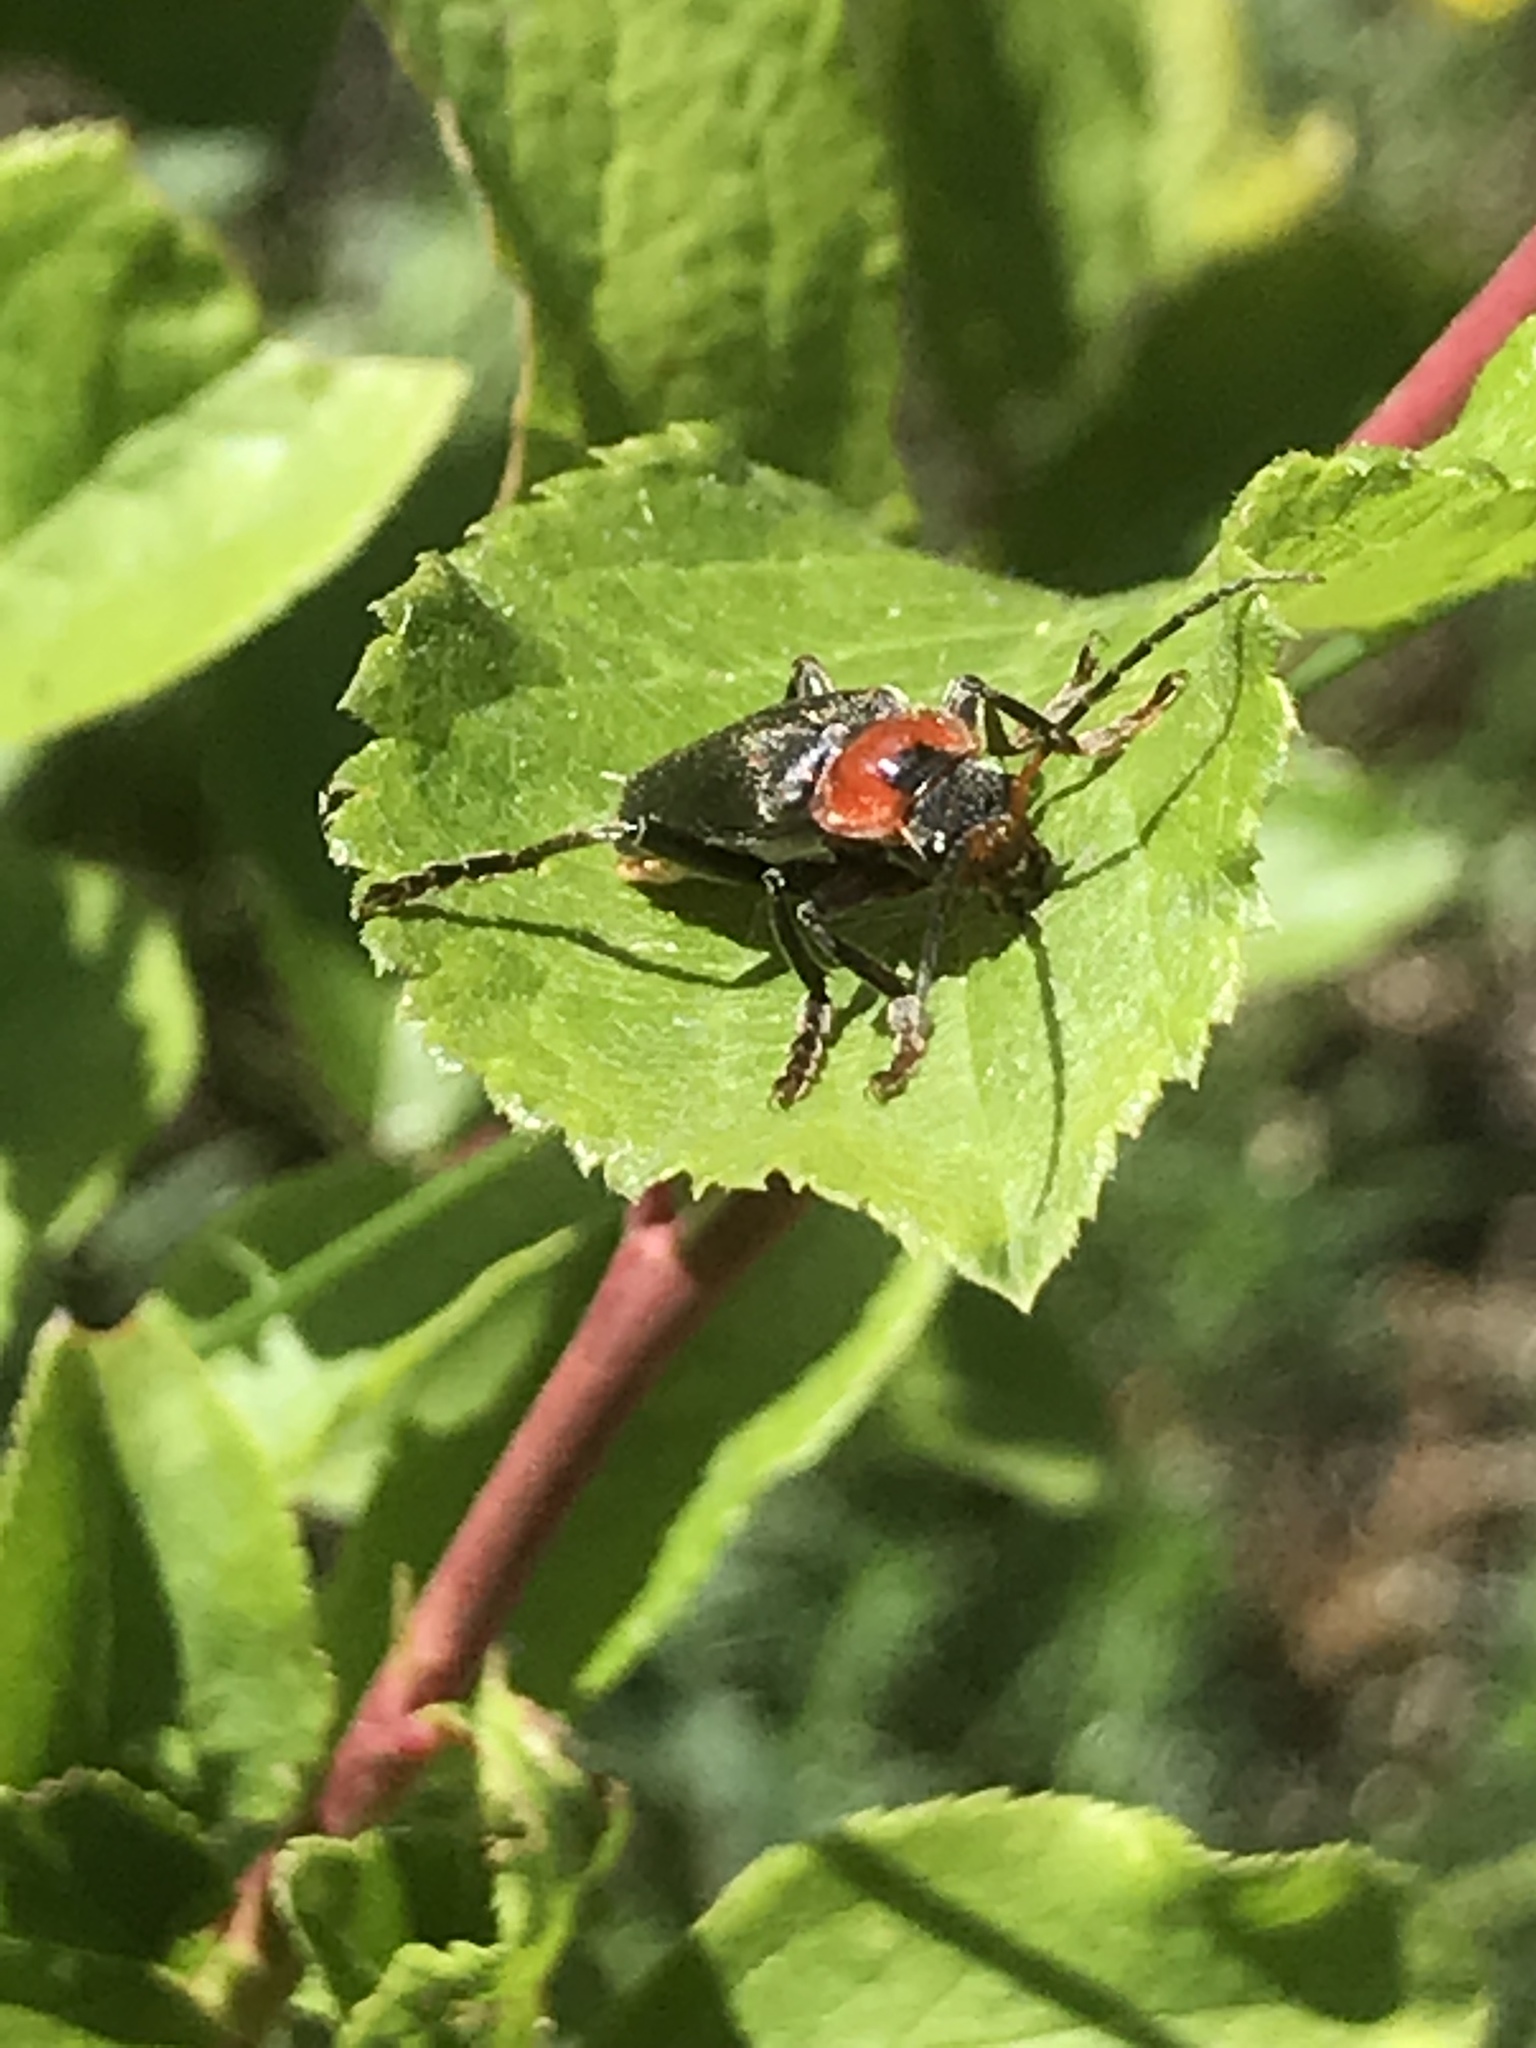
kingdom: Animalia
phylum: Arthropoda
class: Insecta
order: Coleoptera
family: Cantharidae
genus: Cantharis
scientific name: Cantharis fusca
